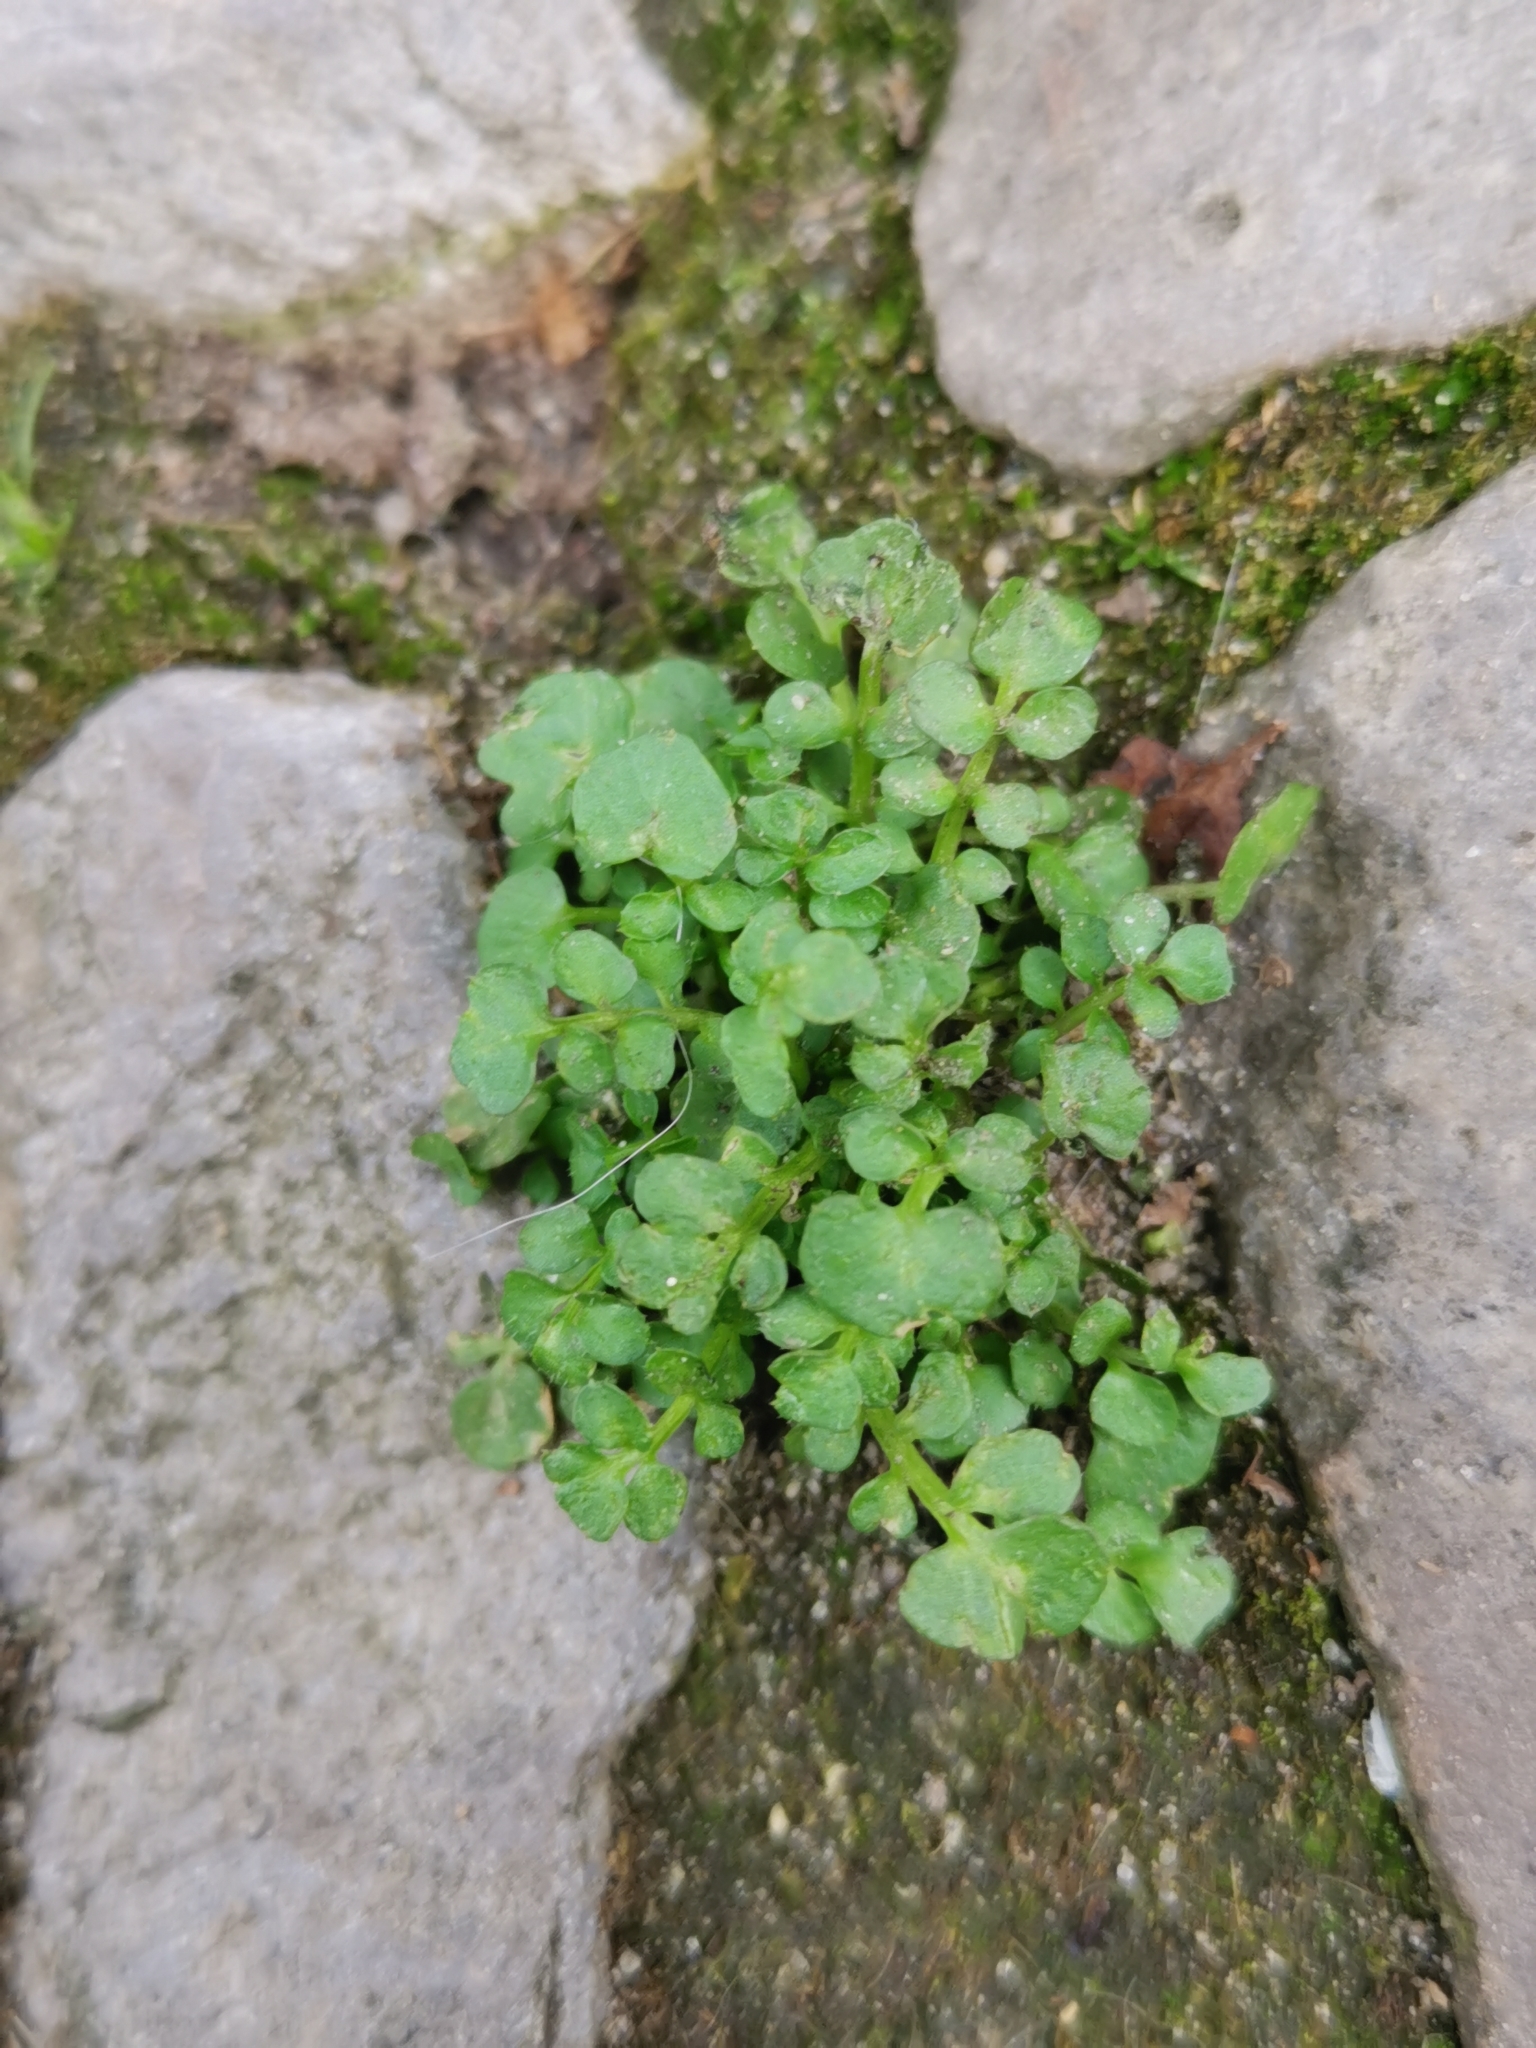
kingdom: Plantae
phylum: Tracheophyta
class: Magnoliopsida
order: Brassicales
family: Brassicaceae
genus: Cardamine
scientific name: Cardamine hirsuta
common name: Hairy bittercress
